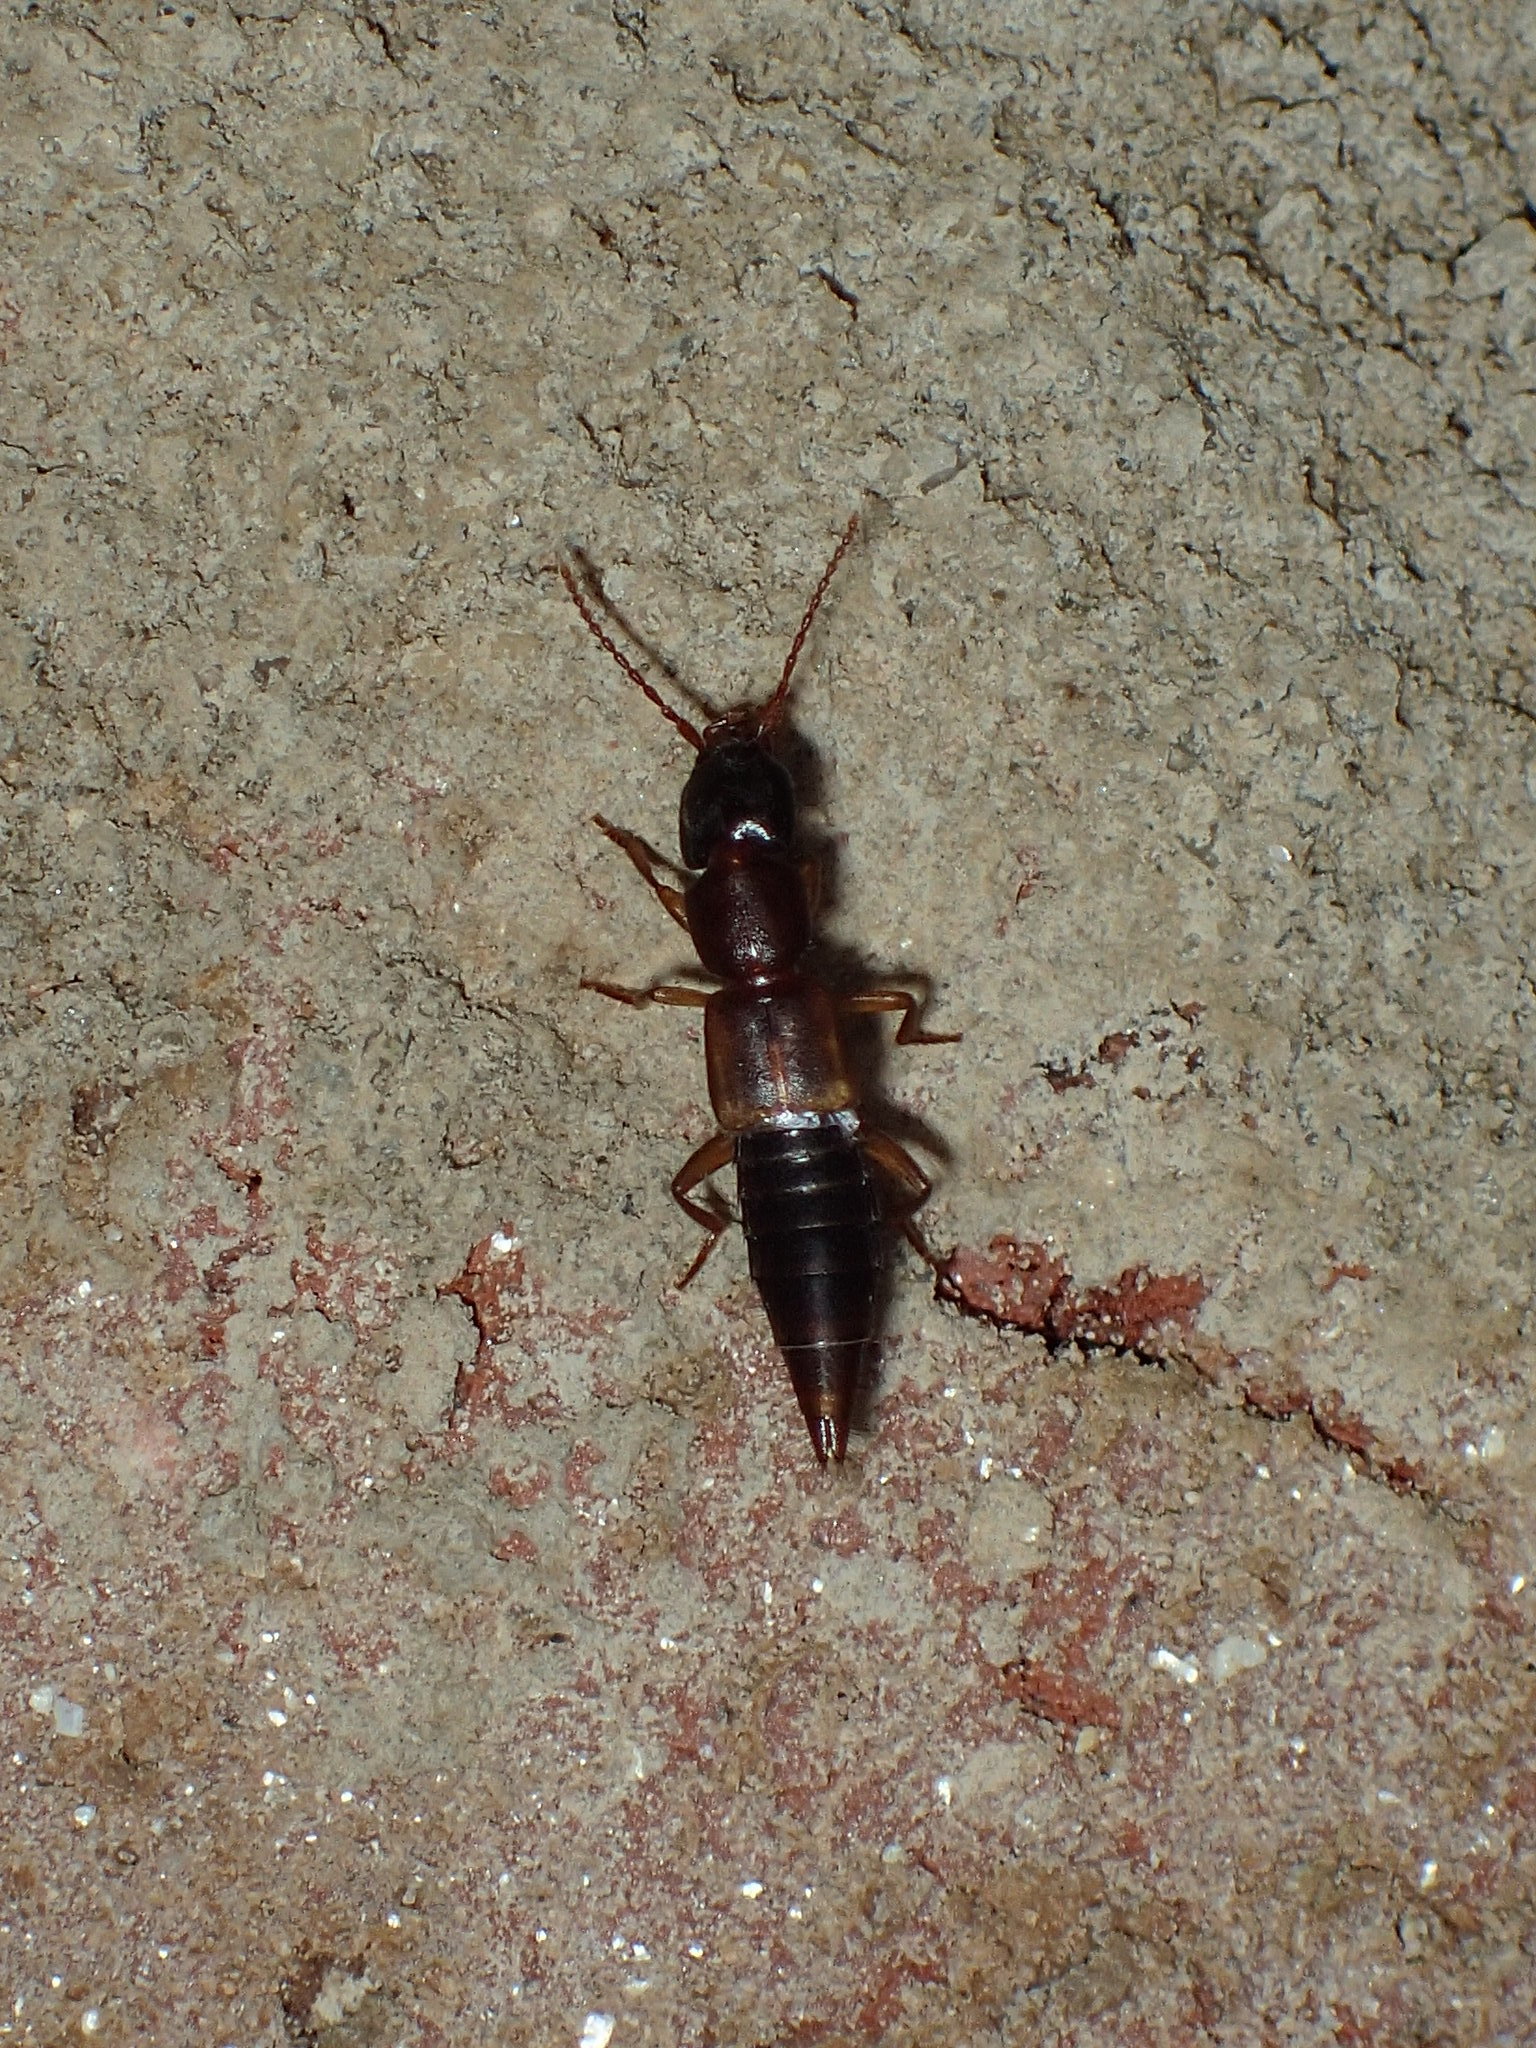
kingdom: Animalia
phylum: Arthropoda
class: Insecta
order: Coleoptera
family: Staphylinidae
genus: Achenomorphus
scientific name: Achenomorphus corticinus
